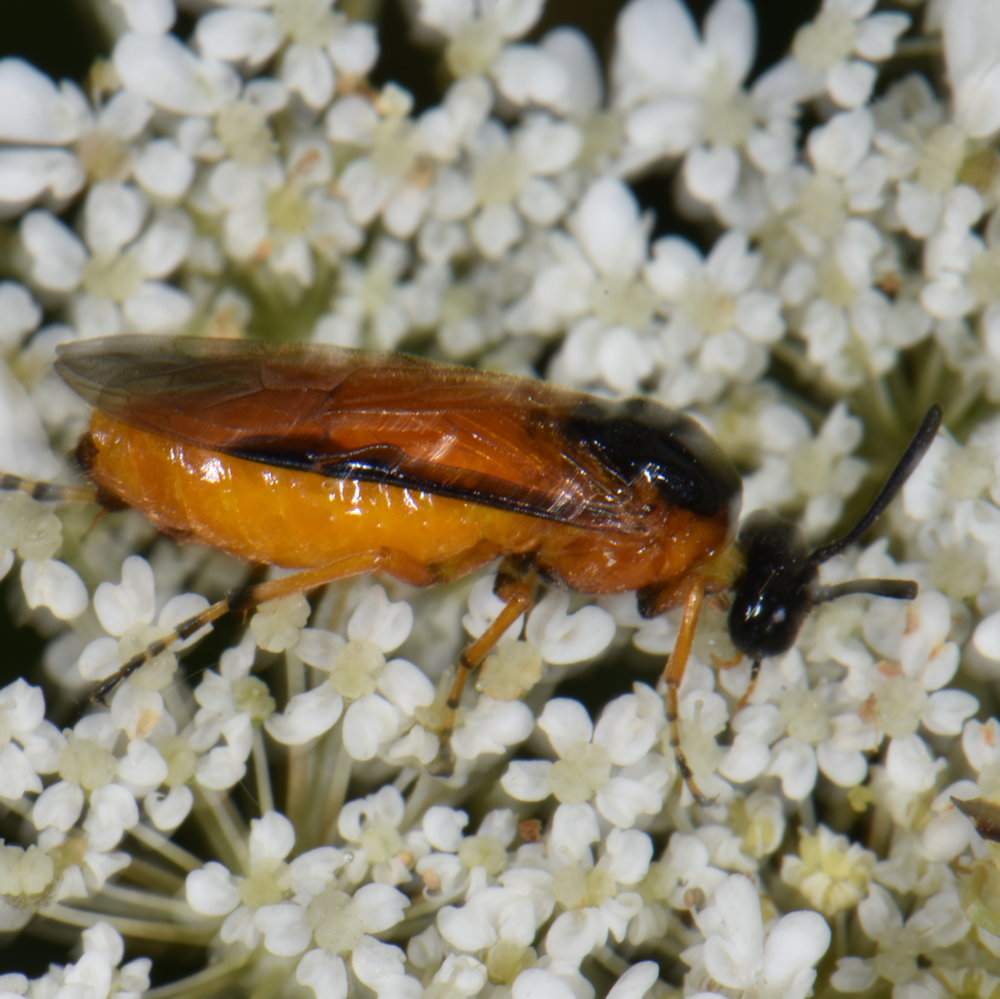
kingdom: Animalia
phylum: Arthropoda
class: Insecta
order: Hymenoptera
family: Argidae
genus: Arge
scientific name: Arge ochropus
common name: Argid sawfly
